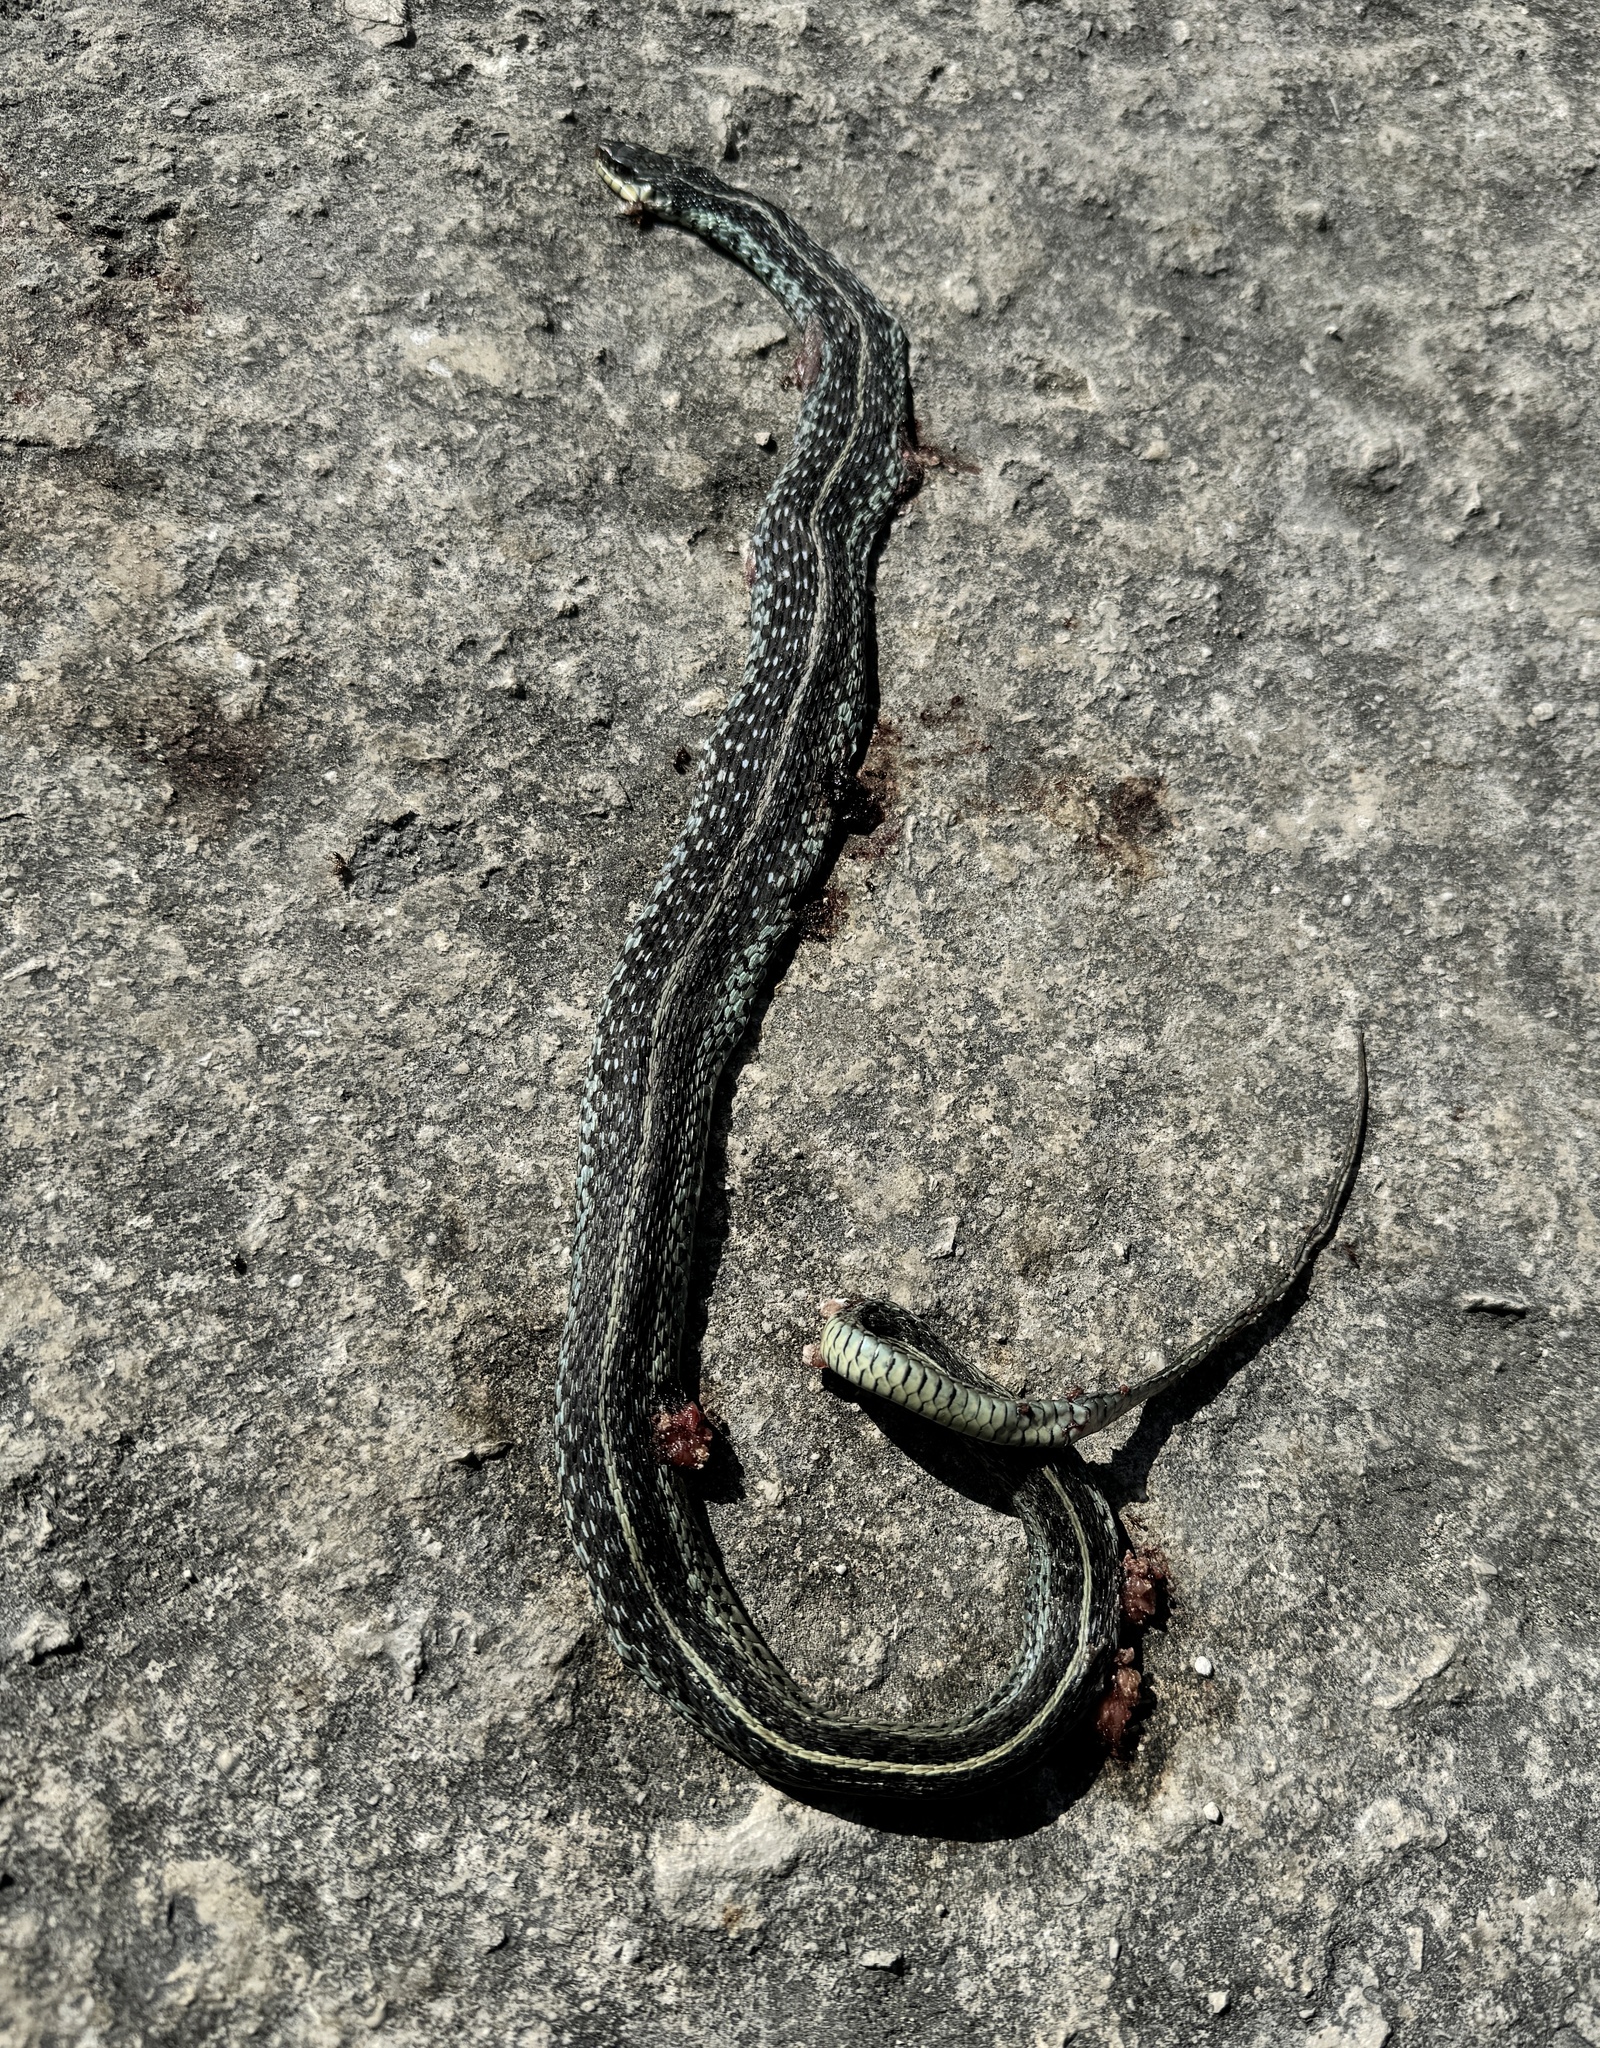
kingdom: Animalia
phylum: Chordata
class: Squamata
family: Colubridae
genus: Thamnophis
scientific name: Thamnophis sirtalis
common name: Common garter snake
